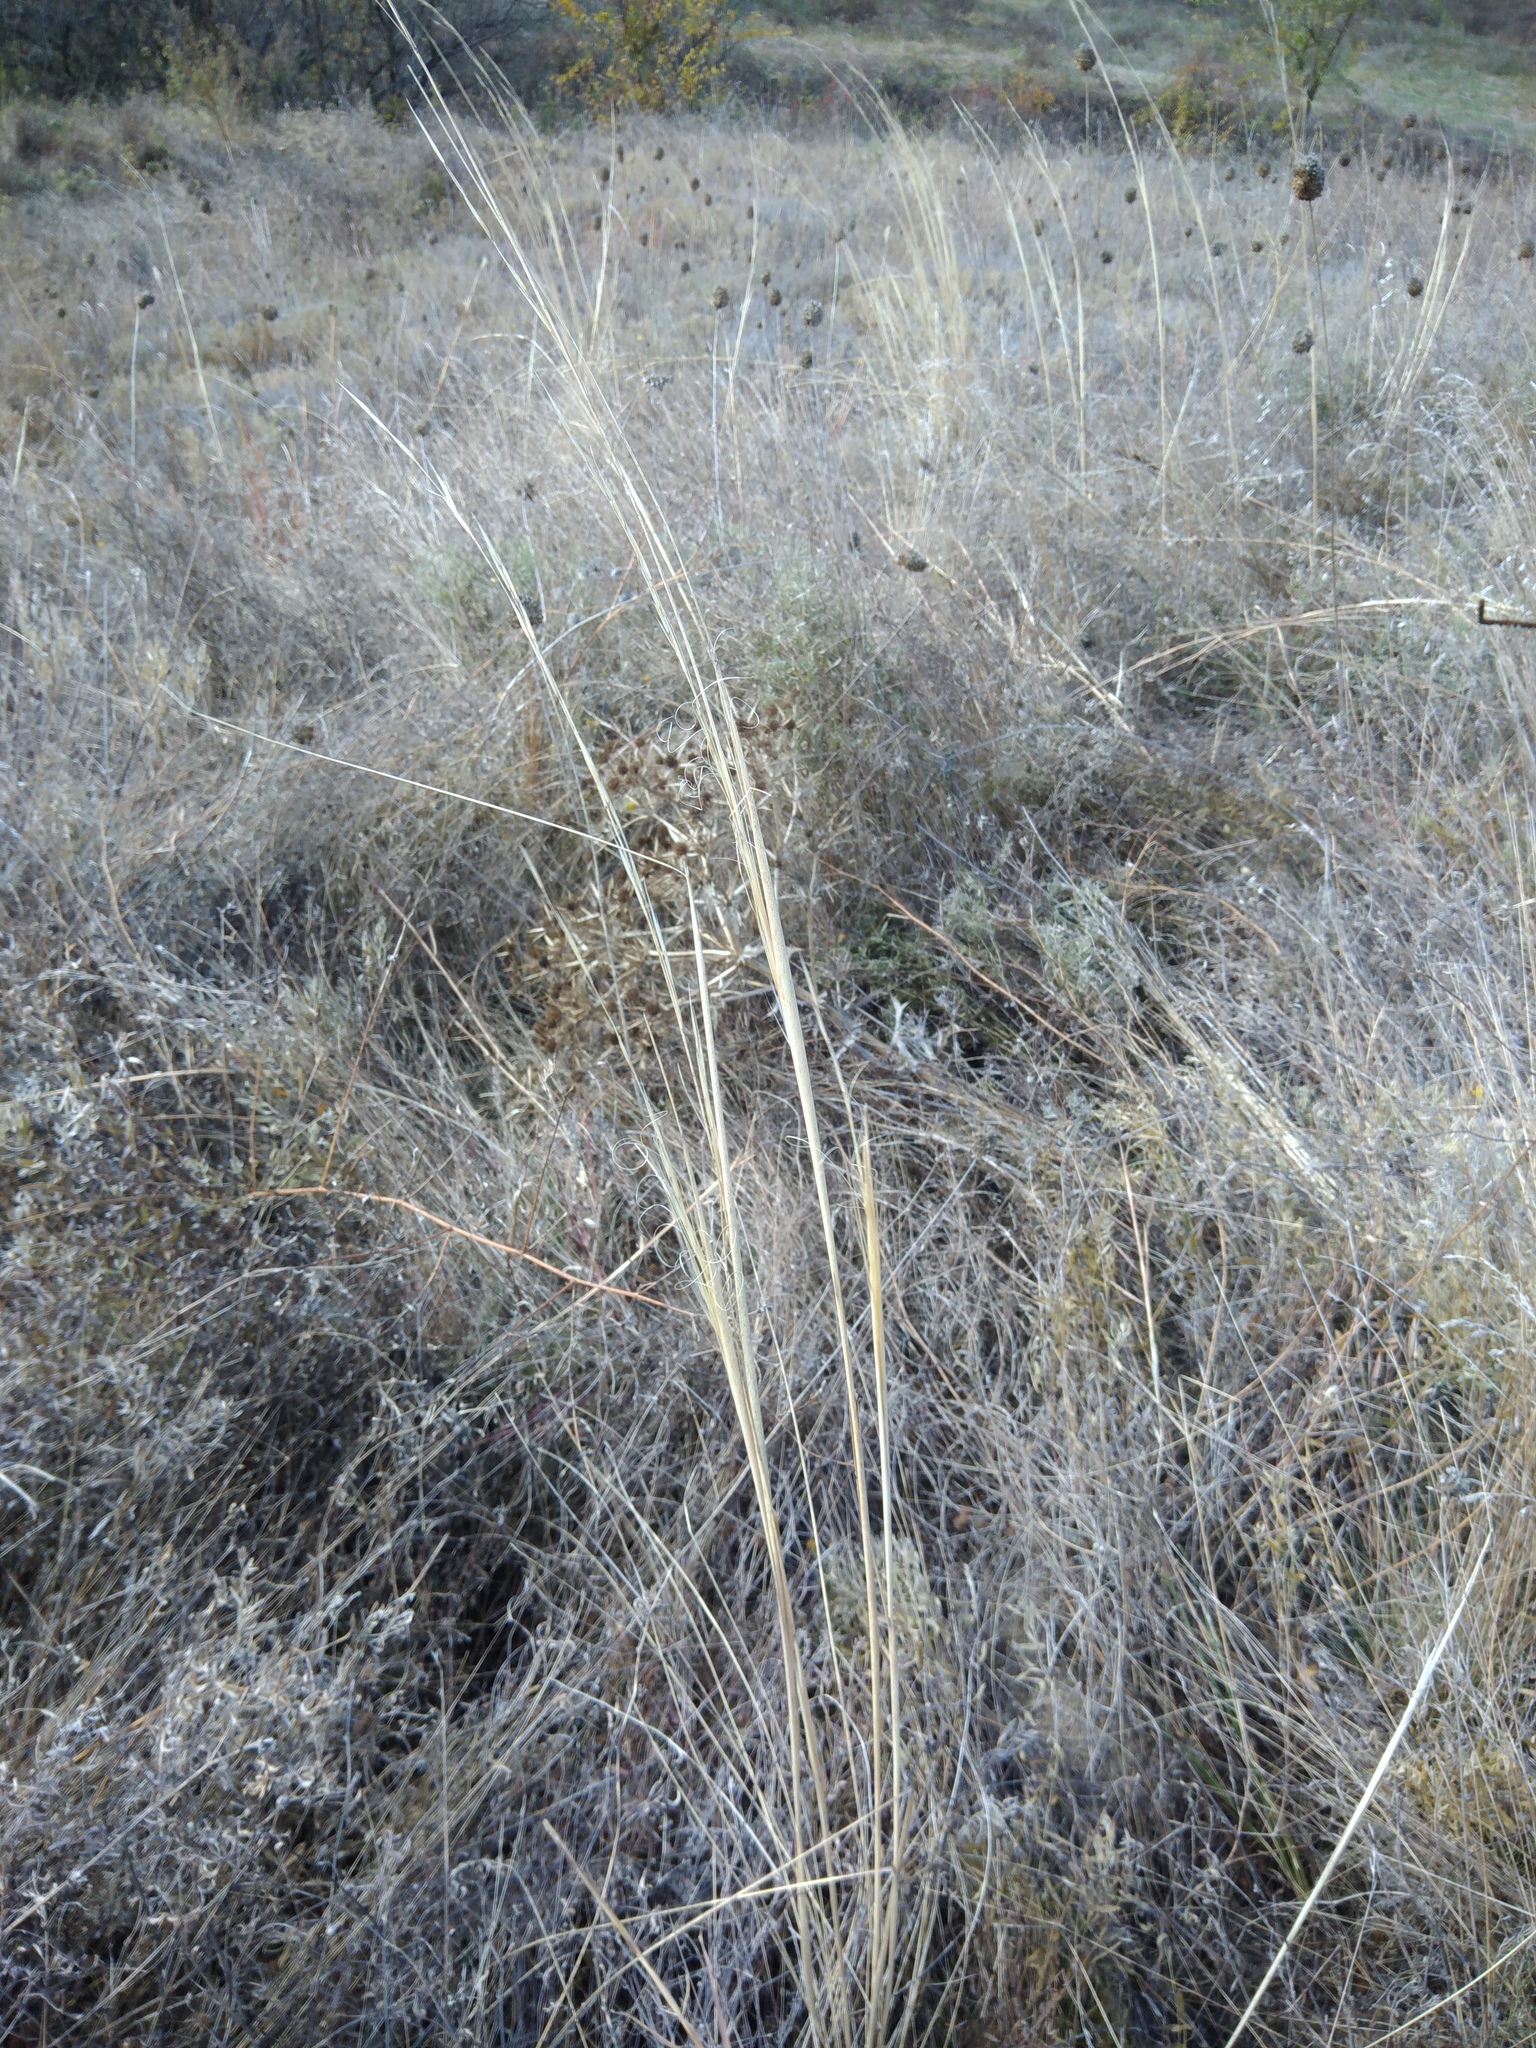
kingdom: Plantae
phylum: Tracheophyta
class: Liliopsida
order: Poales
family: Poaceae
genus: Stipa
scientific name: Stipa capillata
